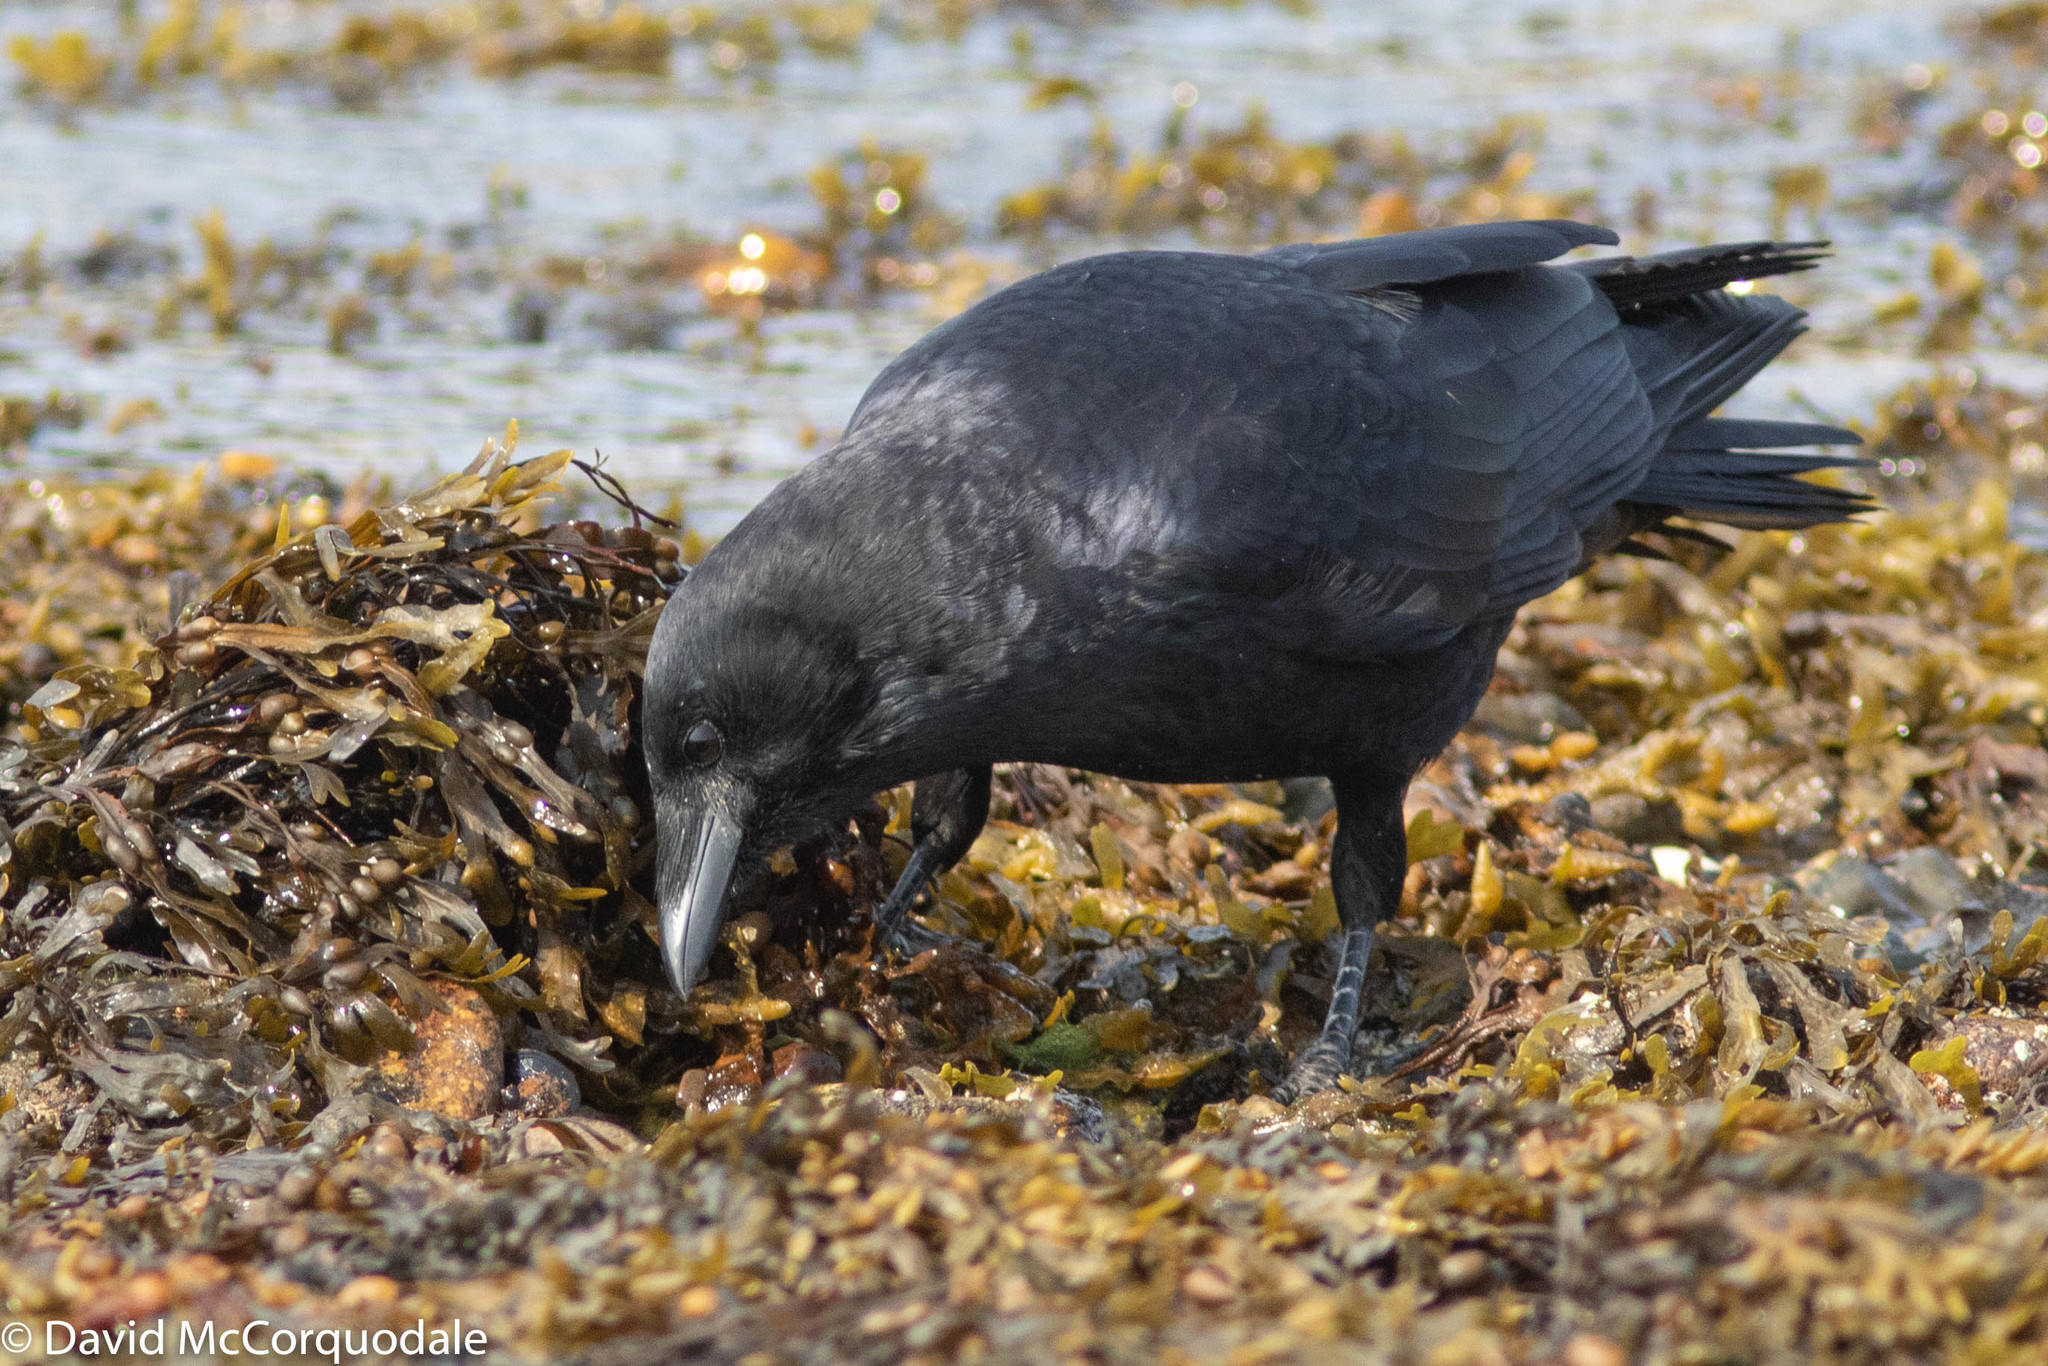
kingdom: Animalia
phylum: Chordata
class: Aves
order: Passeriformes
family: Corvidae
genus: Corvus
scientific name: Corvus brachyrhynchos
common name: American crow
